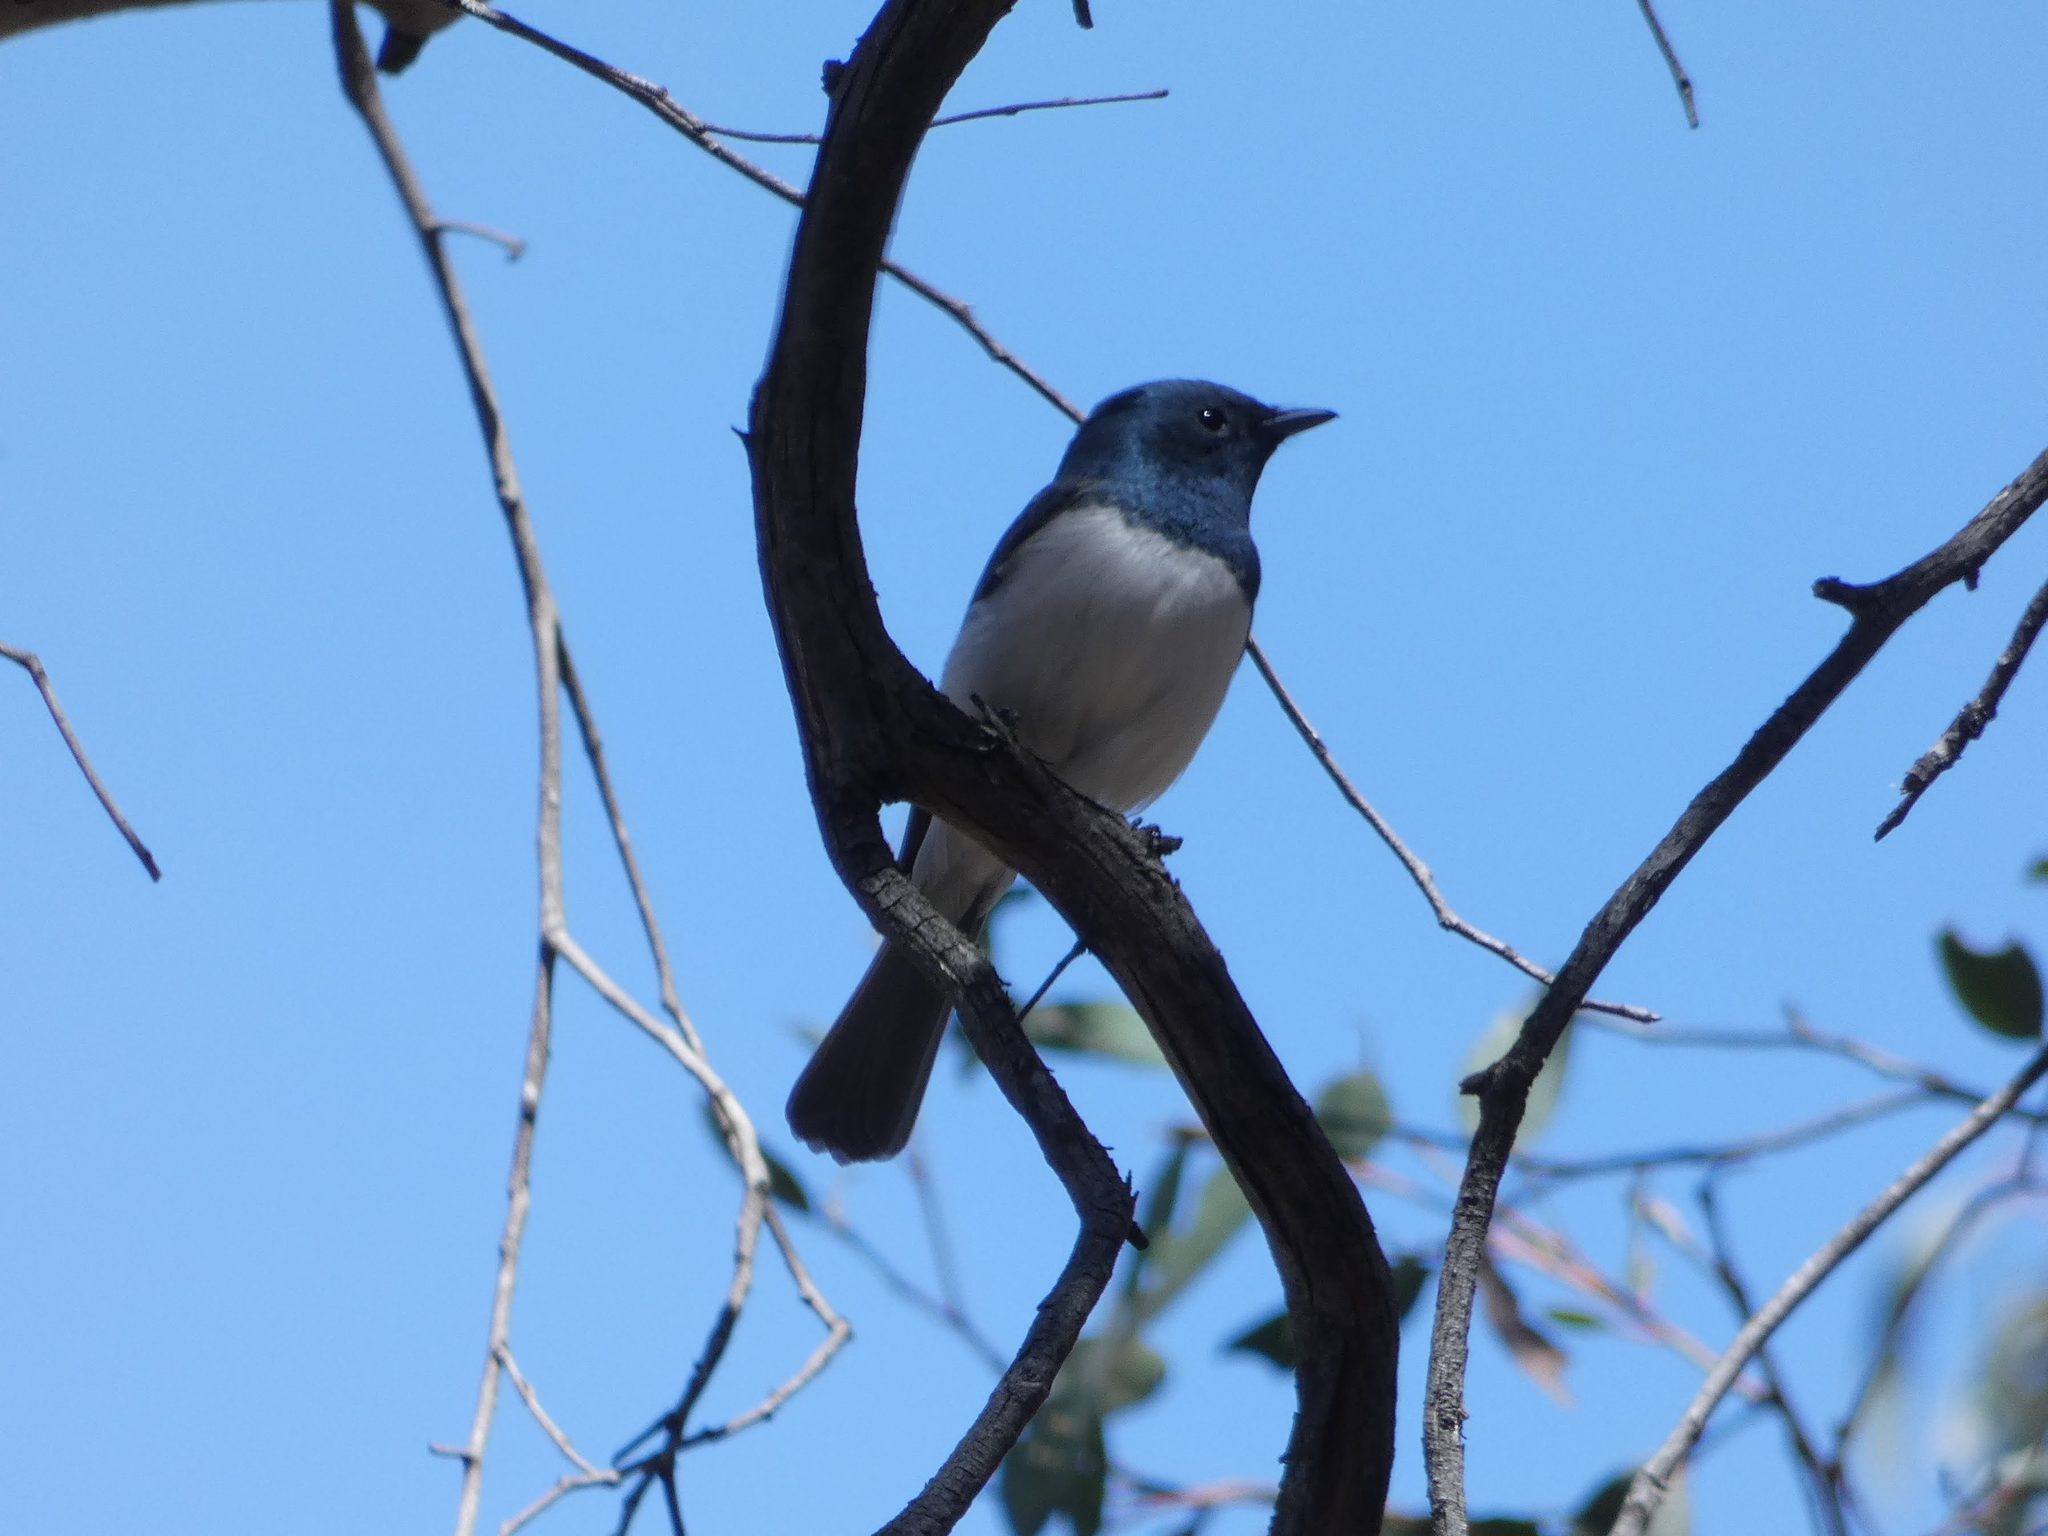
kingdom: Animalia
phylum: Chordata
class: Aves
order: Passeriformes
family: Monarchidae
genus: Myiagra
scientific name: Myiagra rubecula
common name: Leaden flycatcher
